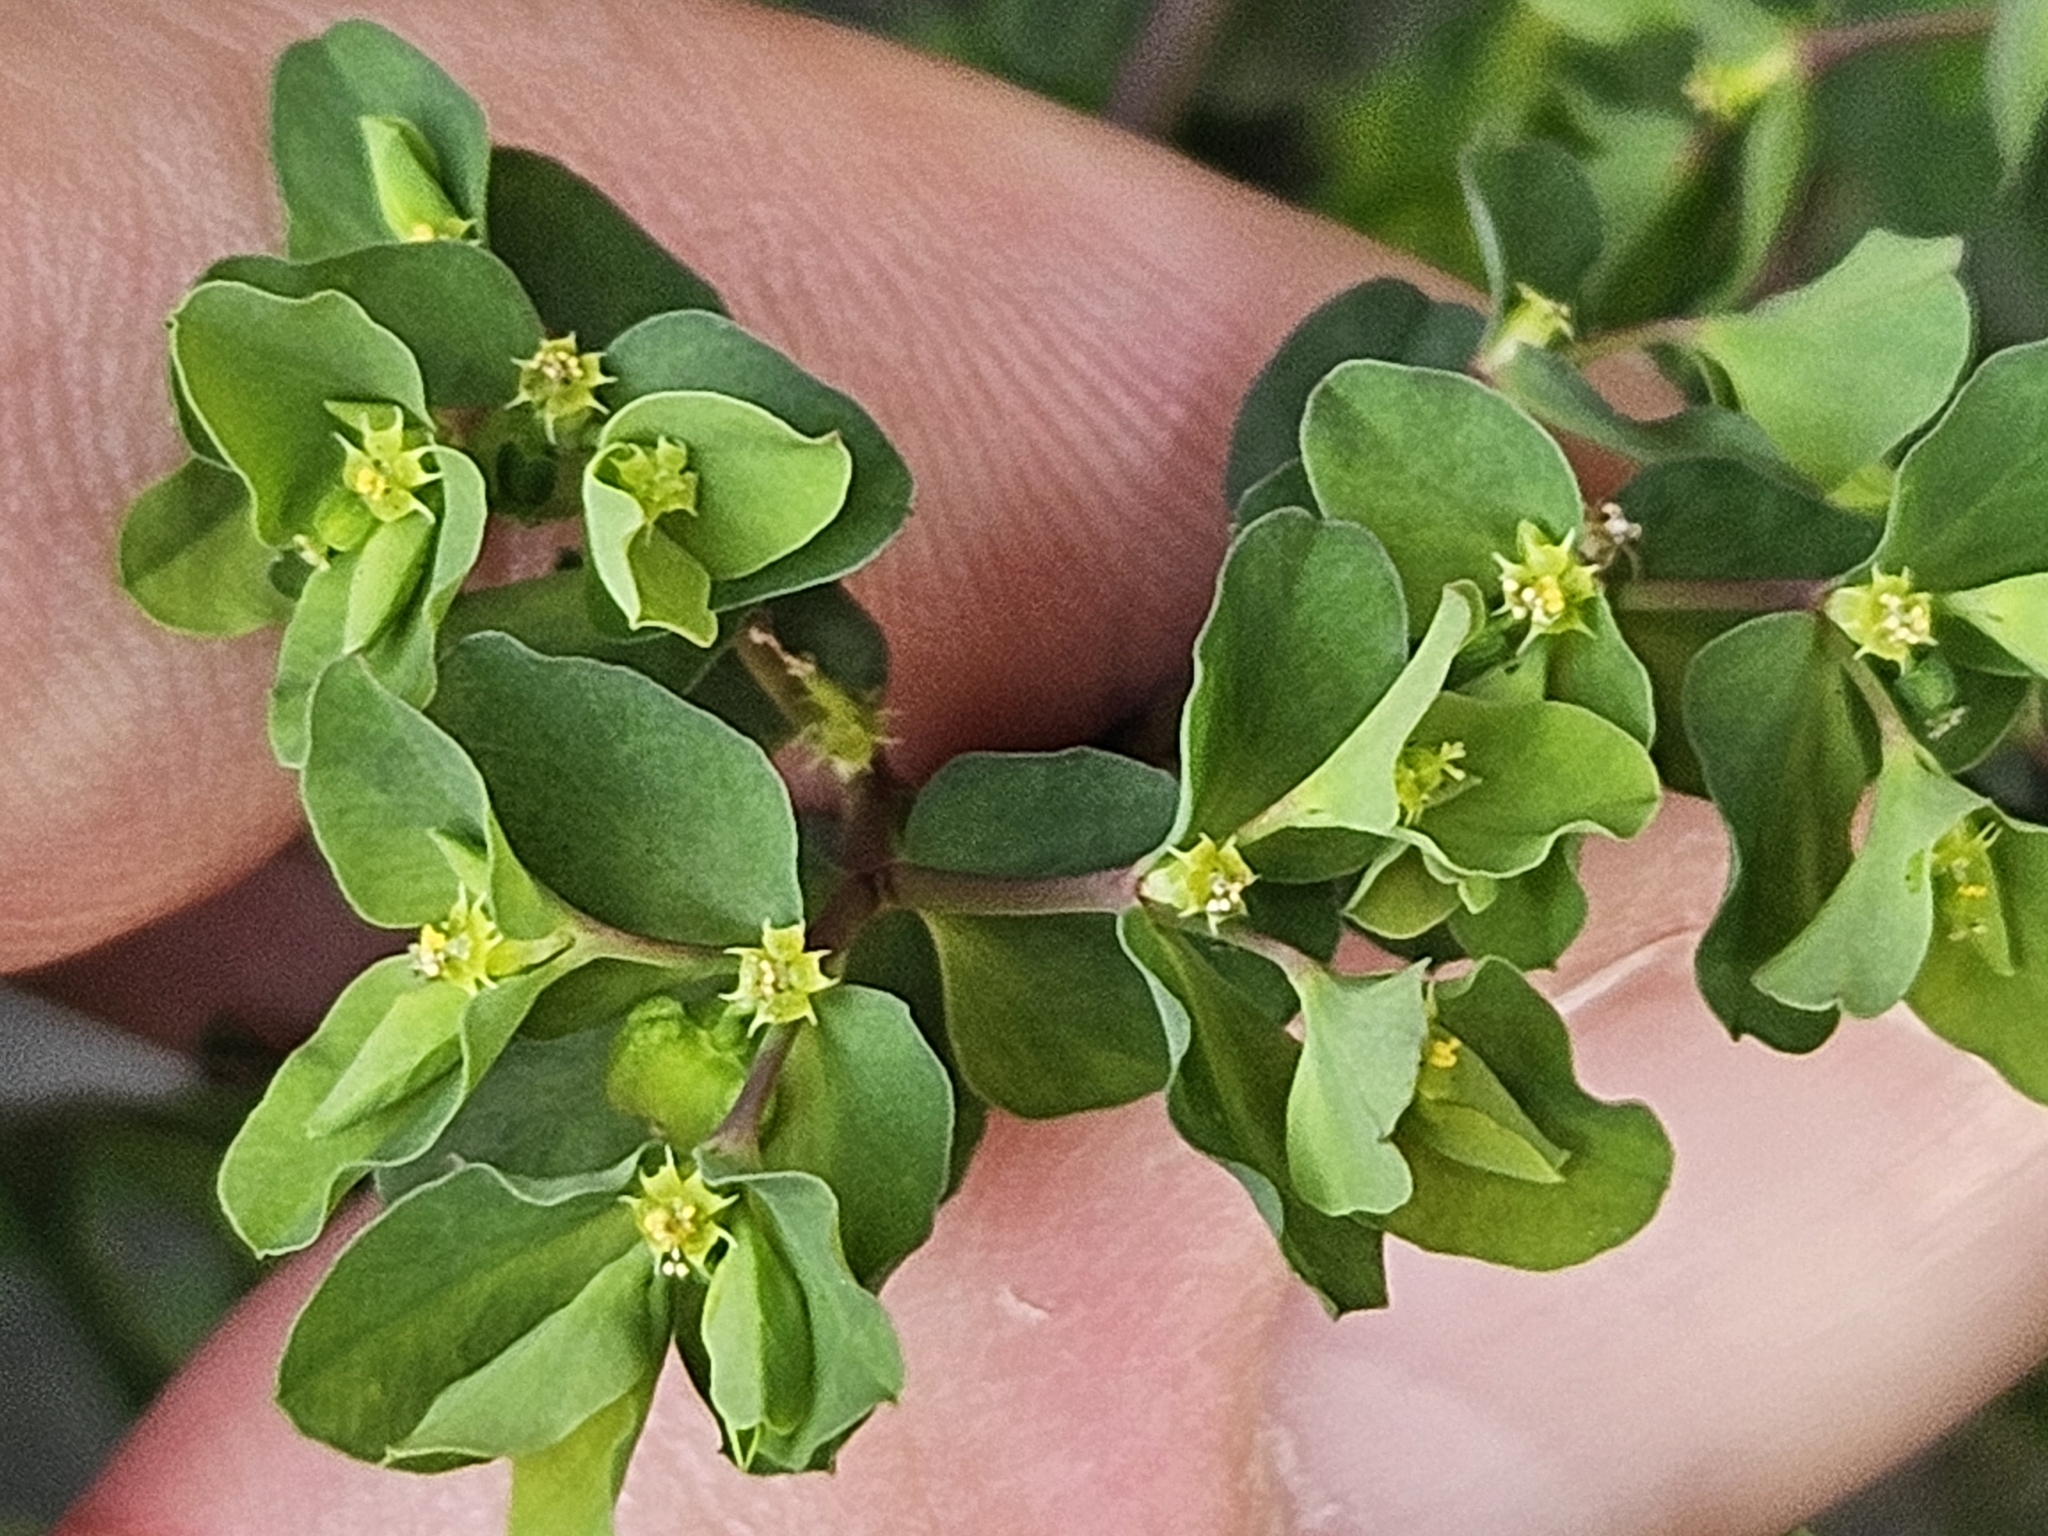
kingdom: Plantae
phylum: Tracheophyta
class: Magnoliopsida
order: Malpighiales
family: Euphorbiaceae
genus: Euphorbia
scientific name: Euphorbia peplus
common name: Petty spurge
